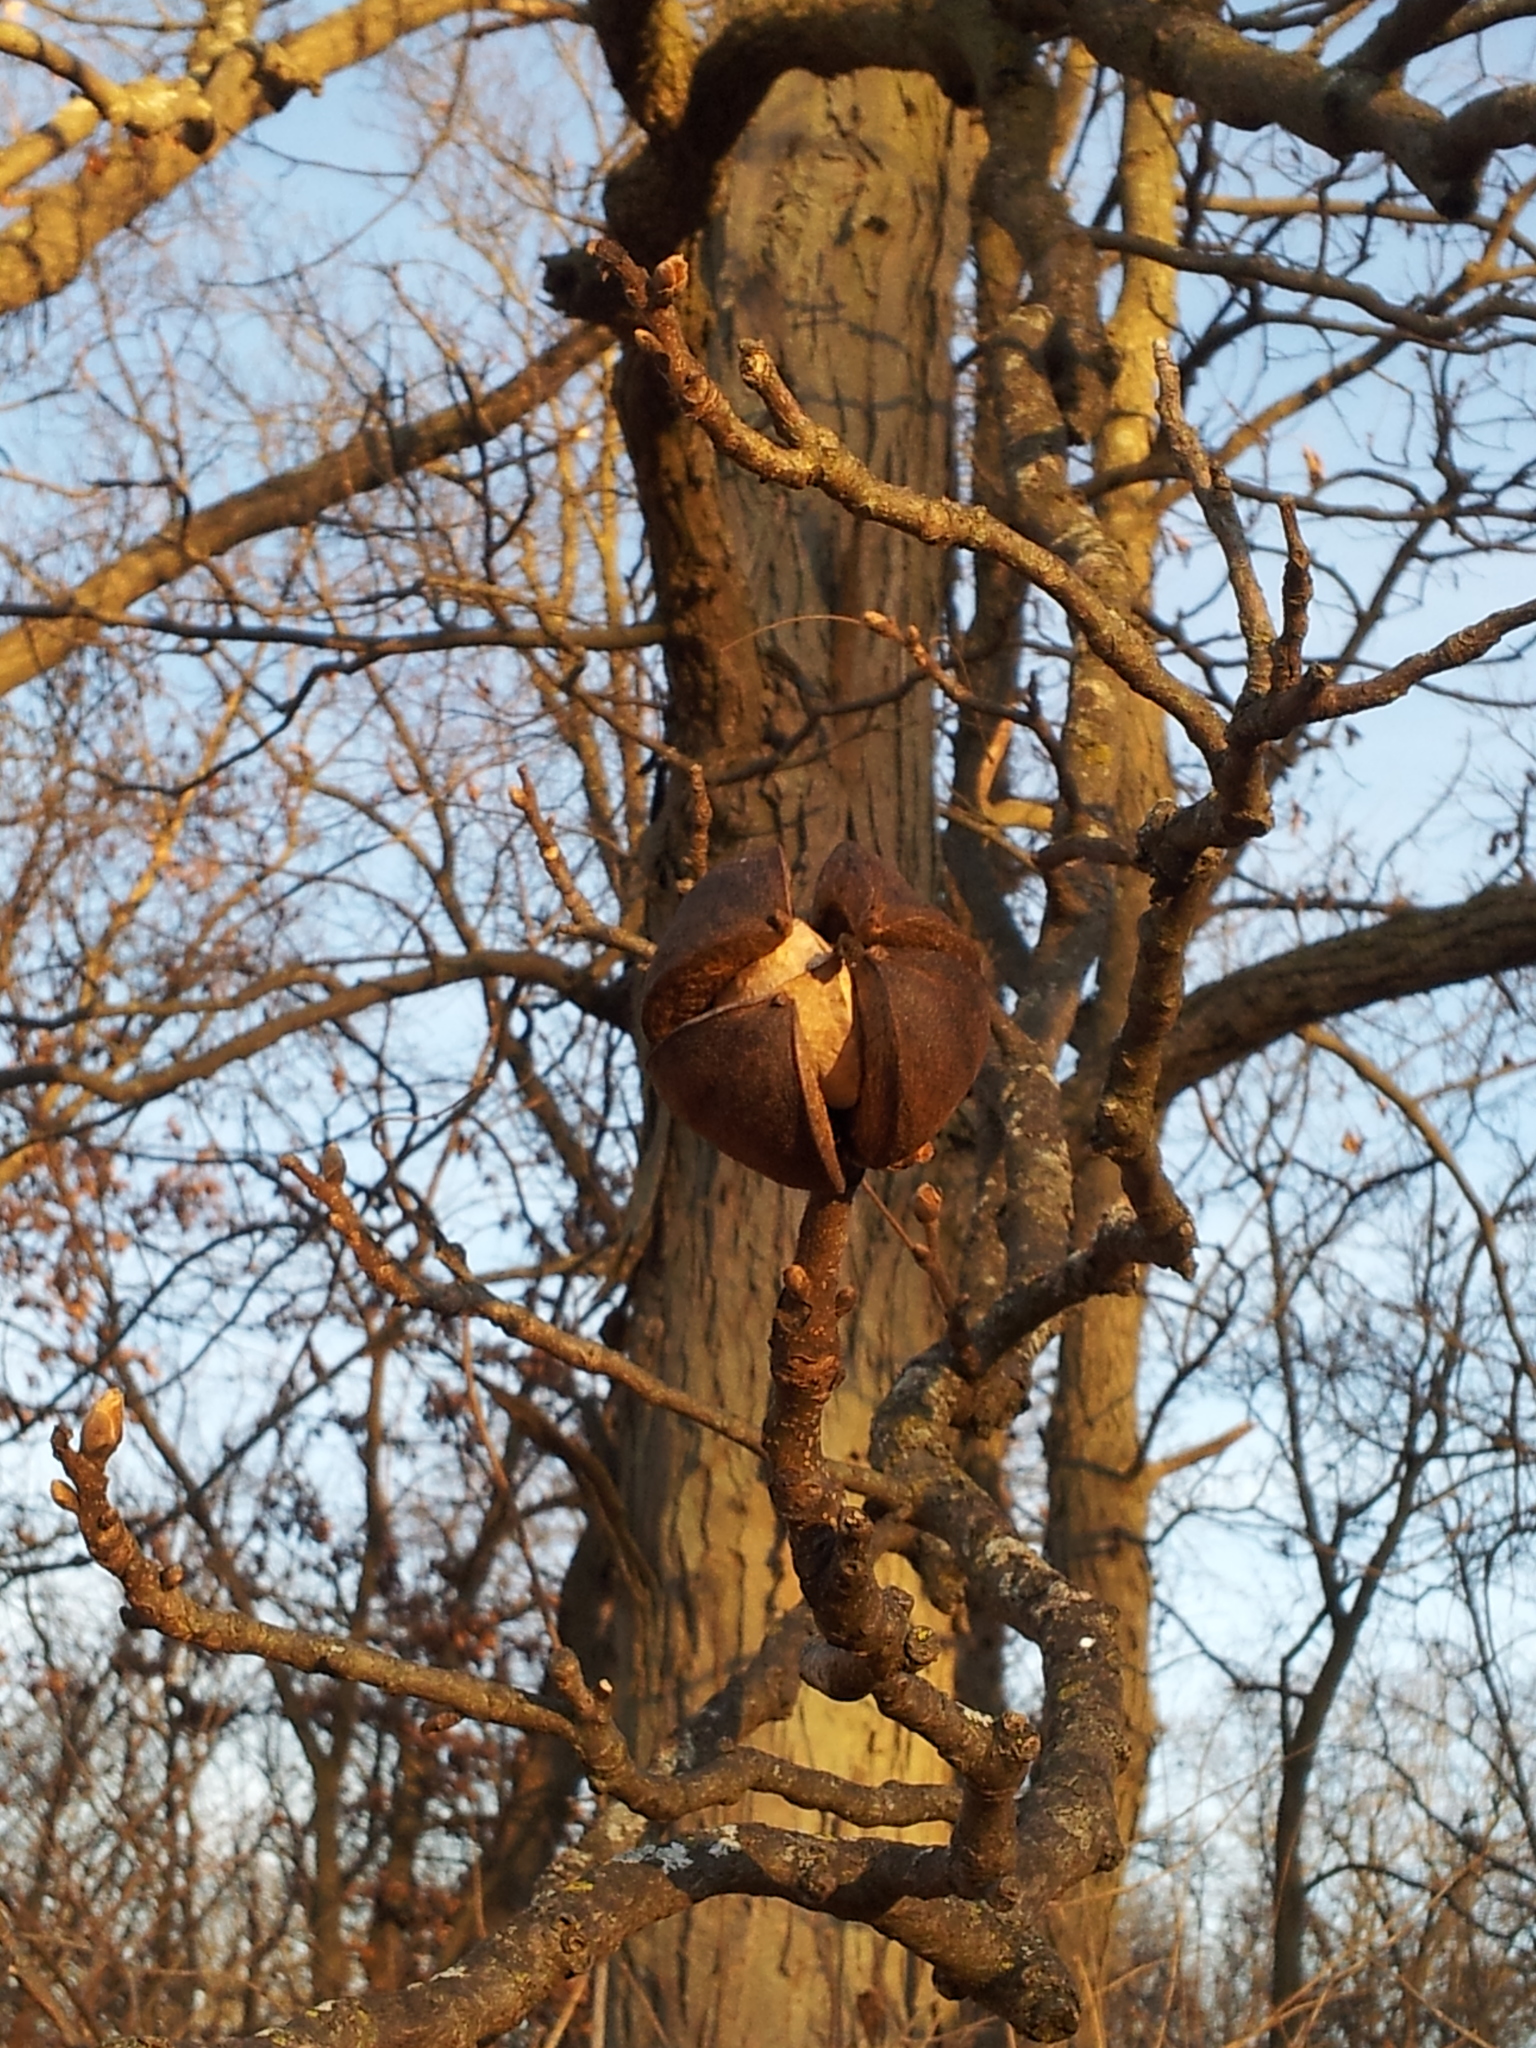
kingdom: Plantae
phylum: Tracheophyta
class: Magnoliopsida
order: Fagales
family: Juglandaceae
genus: Carya
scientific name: Carya ovata
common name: Shagbark hickory
